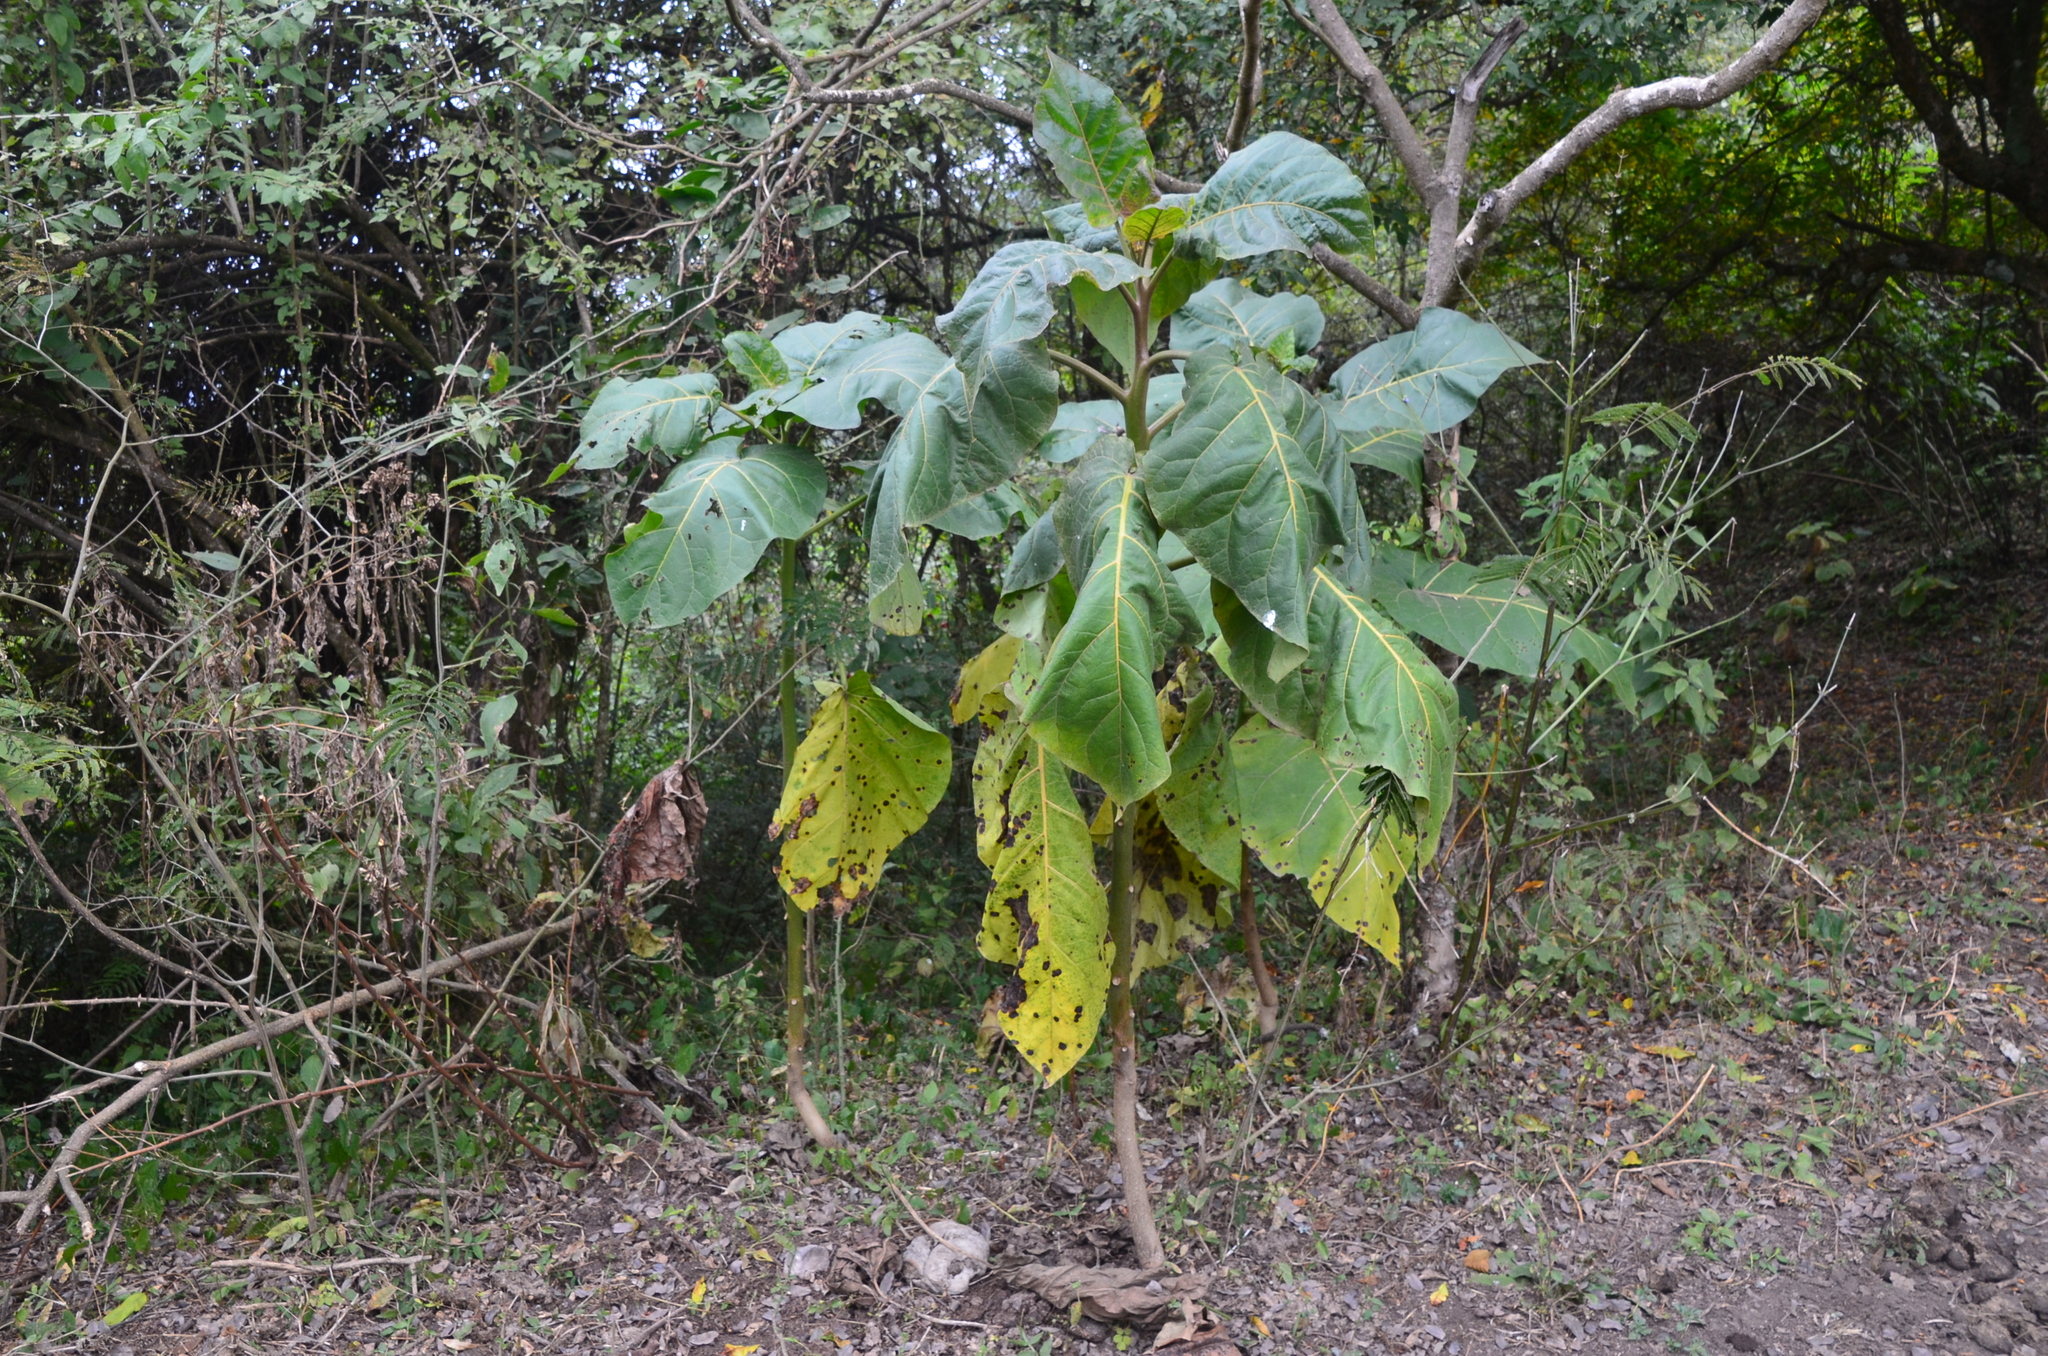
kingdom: Plantae
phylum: Tracheophyta
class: Magnoliopsida
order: Solanales
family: Solanaceae
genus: Solanum
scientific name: Solanum betaceum
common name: Tamarillo
